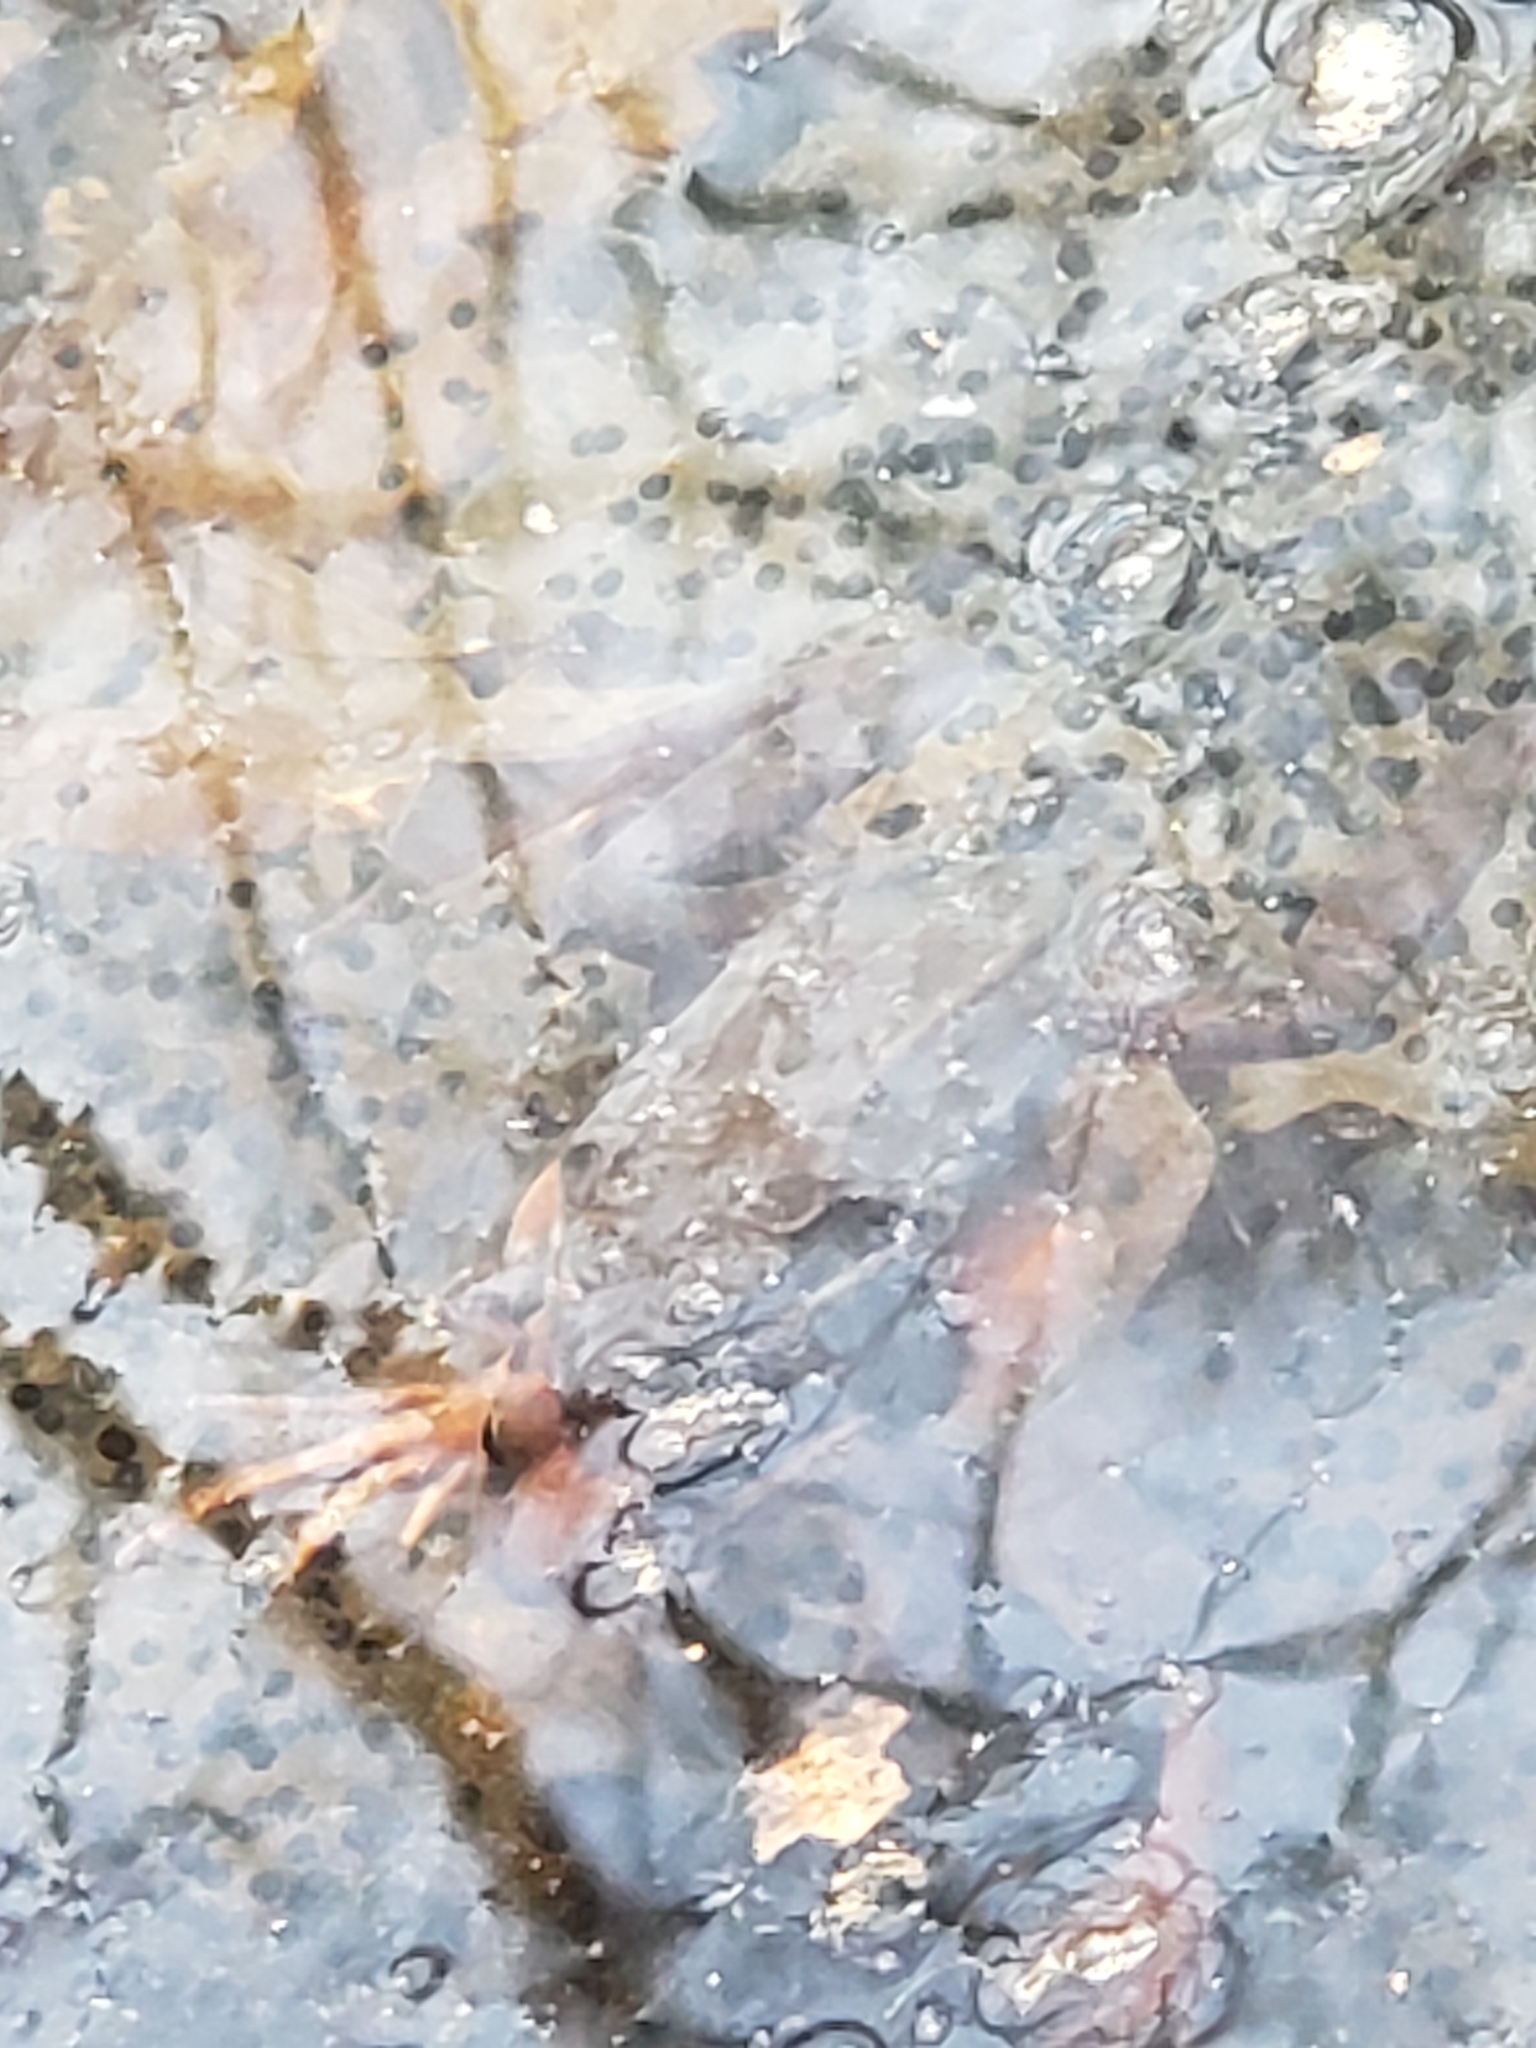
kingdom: Animalia
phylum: Chordata
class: Amphibia
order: Anura
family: Ranidae
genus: Lithobates
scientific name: Lithobates sylvaticus
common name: Wood frog
